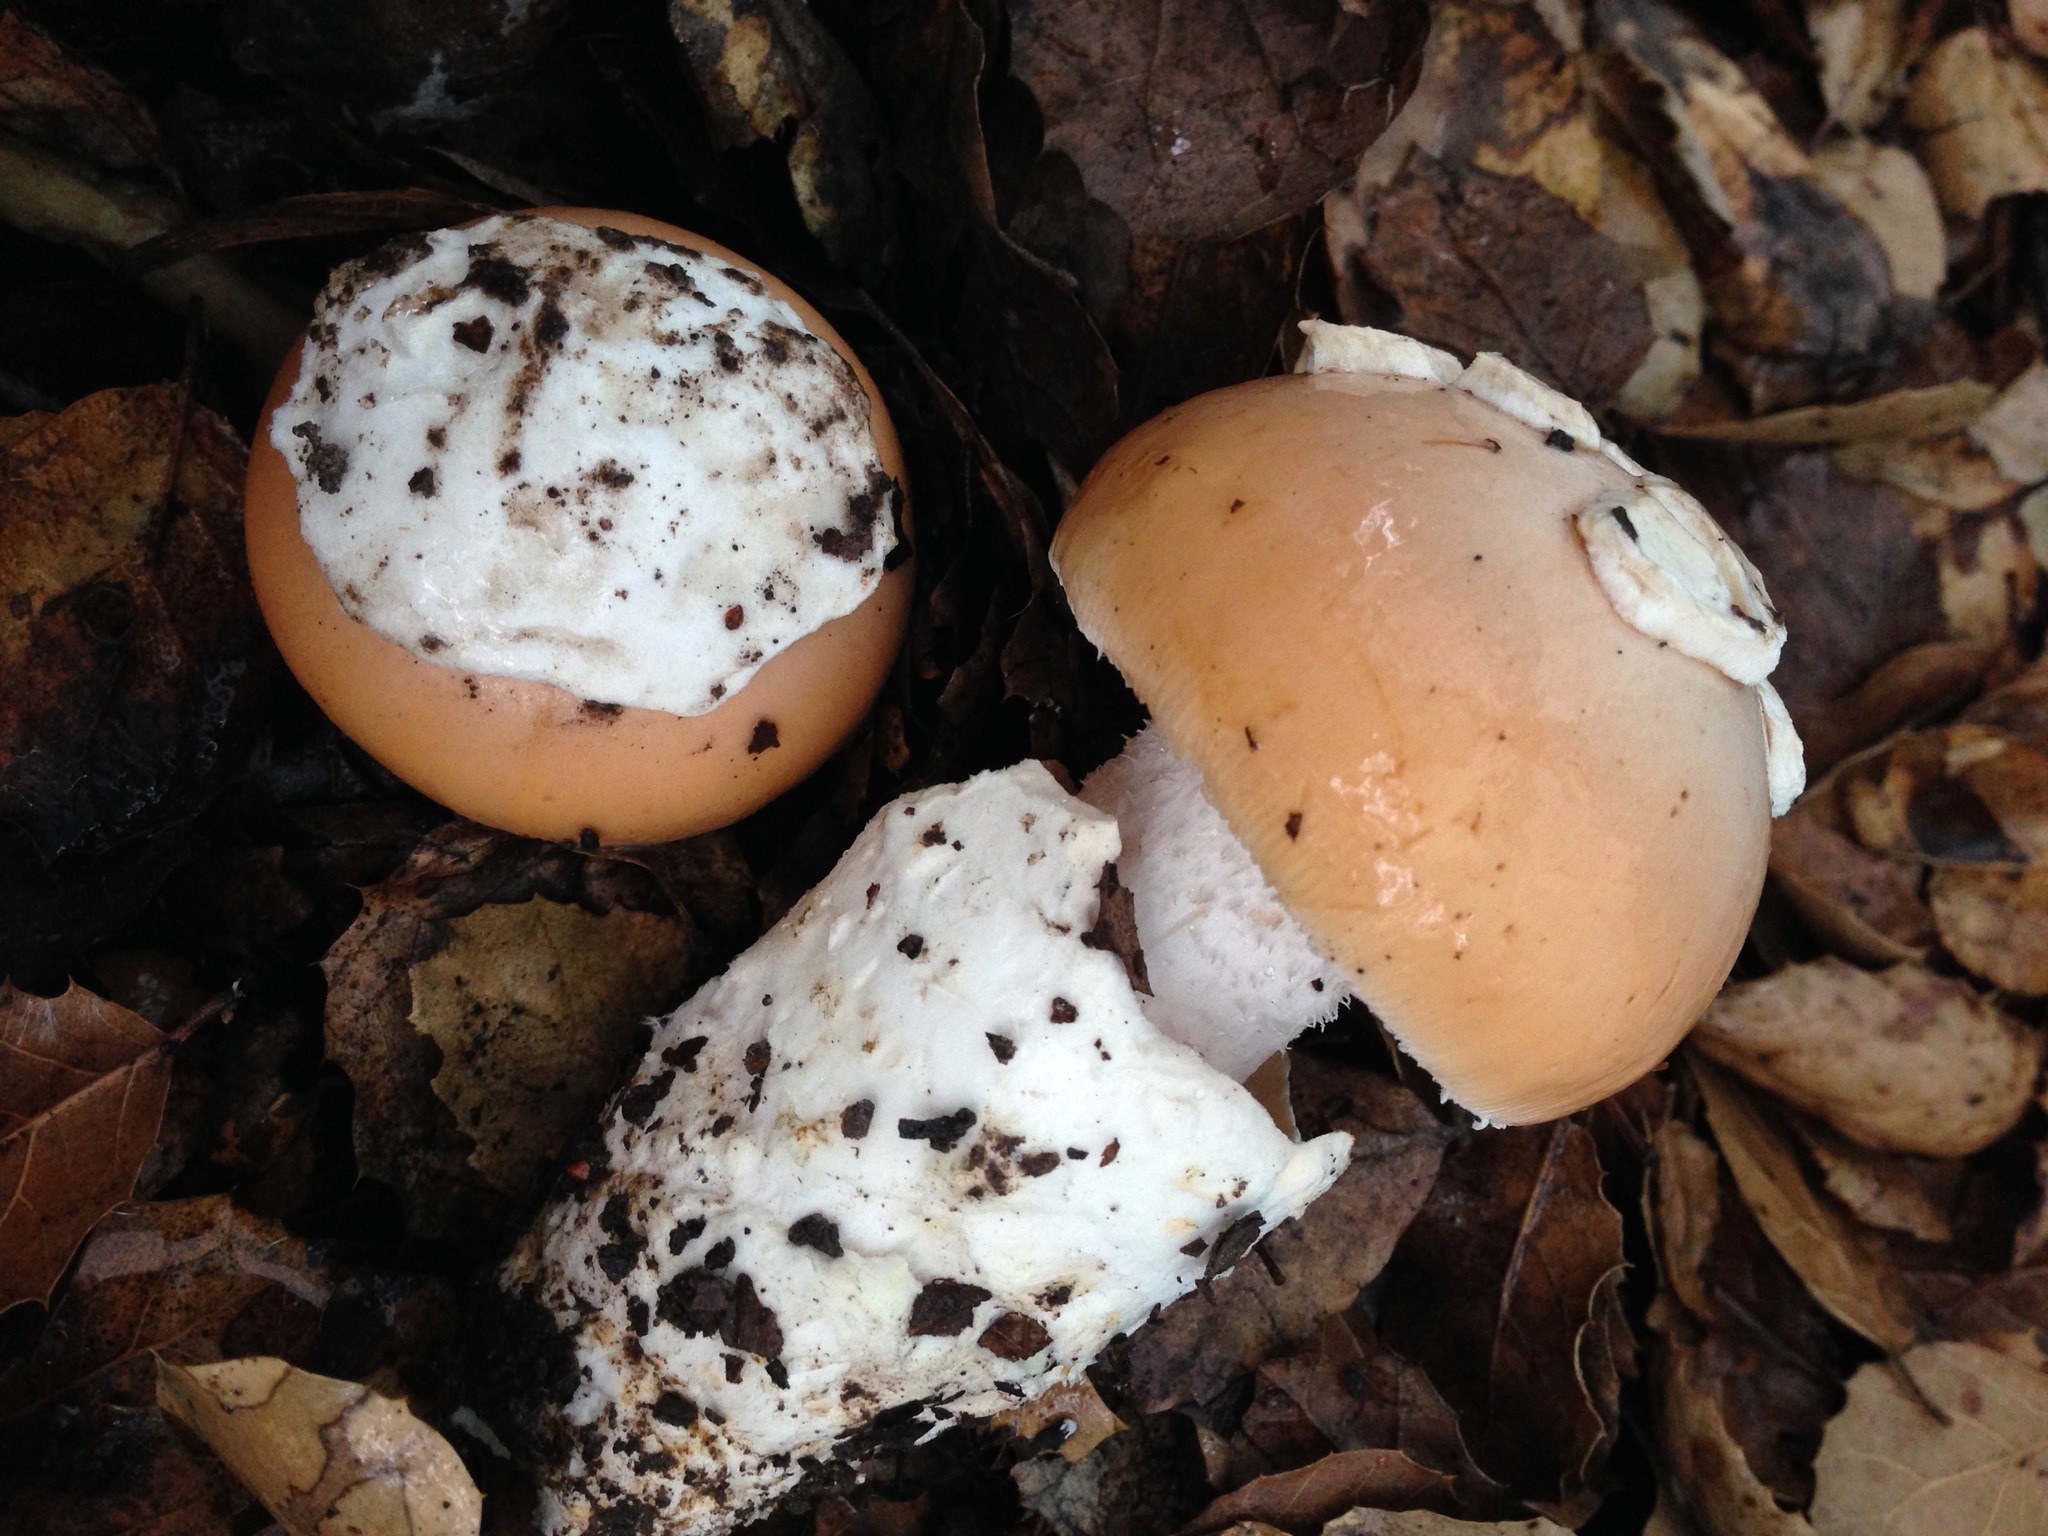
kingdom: Fungi
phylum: Basidiomycota
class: Agaricomycetes
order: Agaricales
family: Amanitaceae
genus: Amanita
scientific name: Amanita velosa
